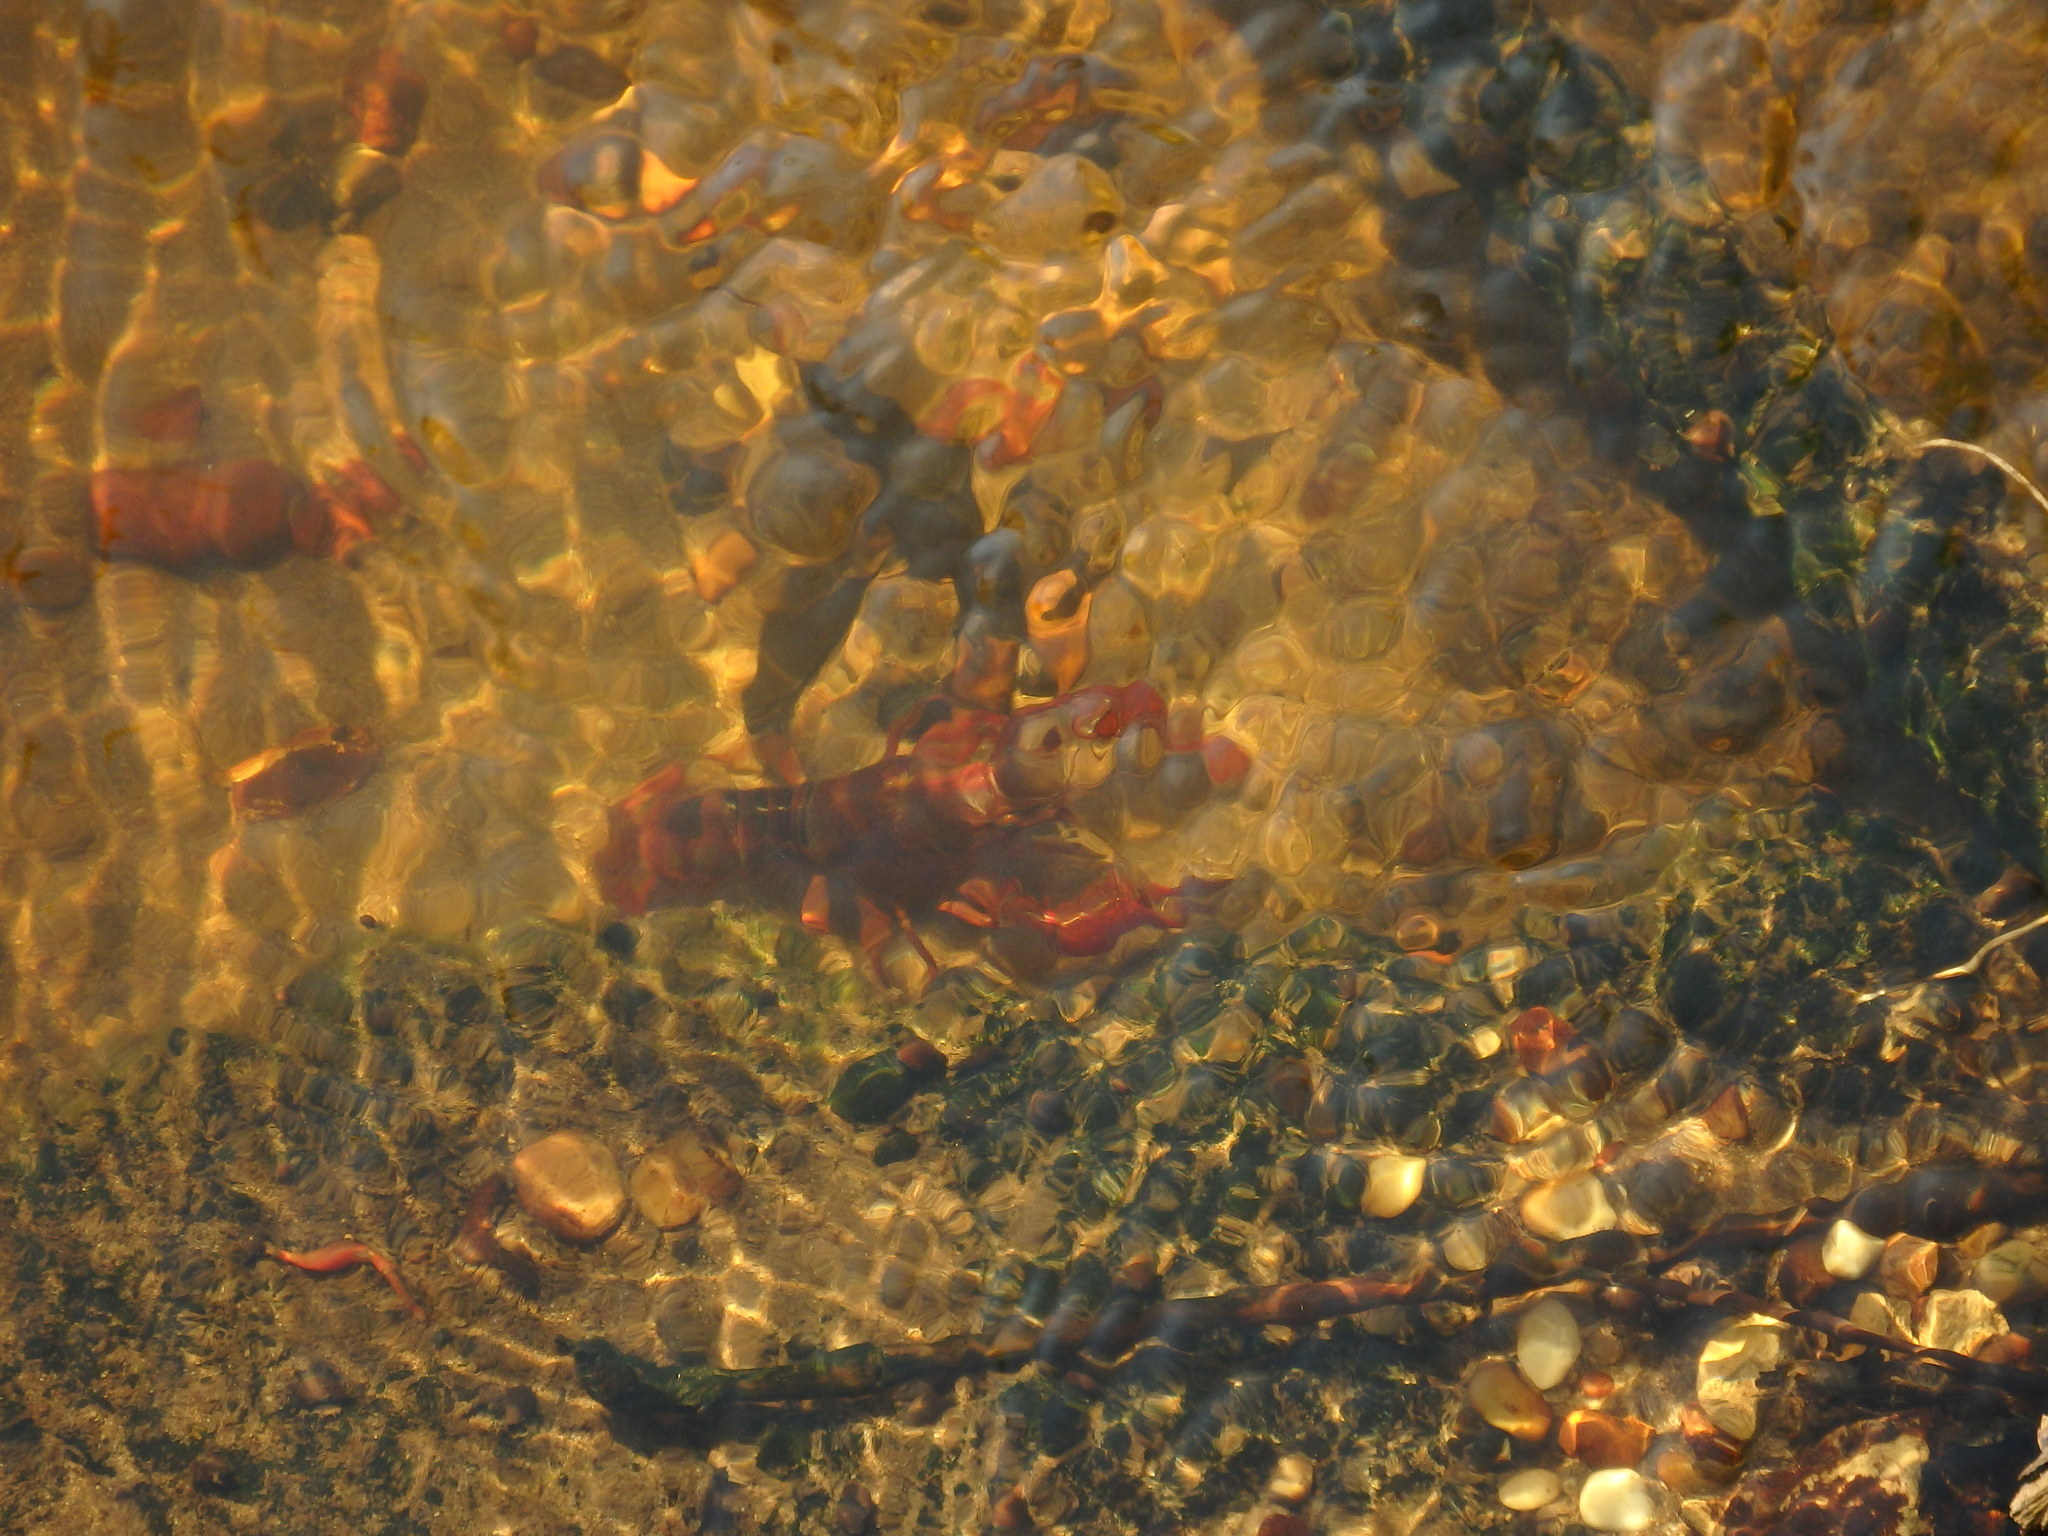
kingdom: Animalia
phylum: Arthropoda
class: Malacostraca
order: Decapoda
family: Cambaridae
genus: Procambarus
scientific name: Procambarus clarkii
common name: Red swamp crayfish
